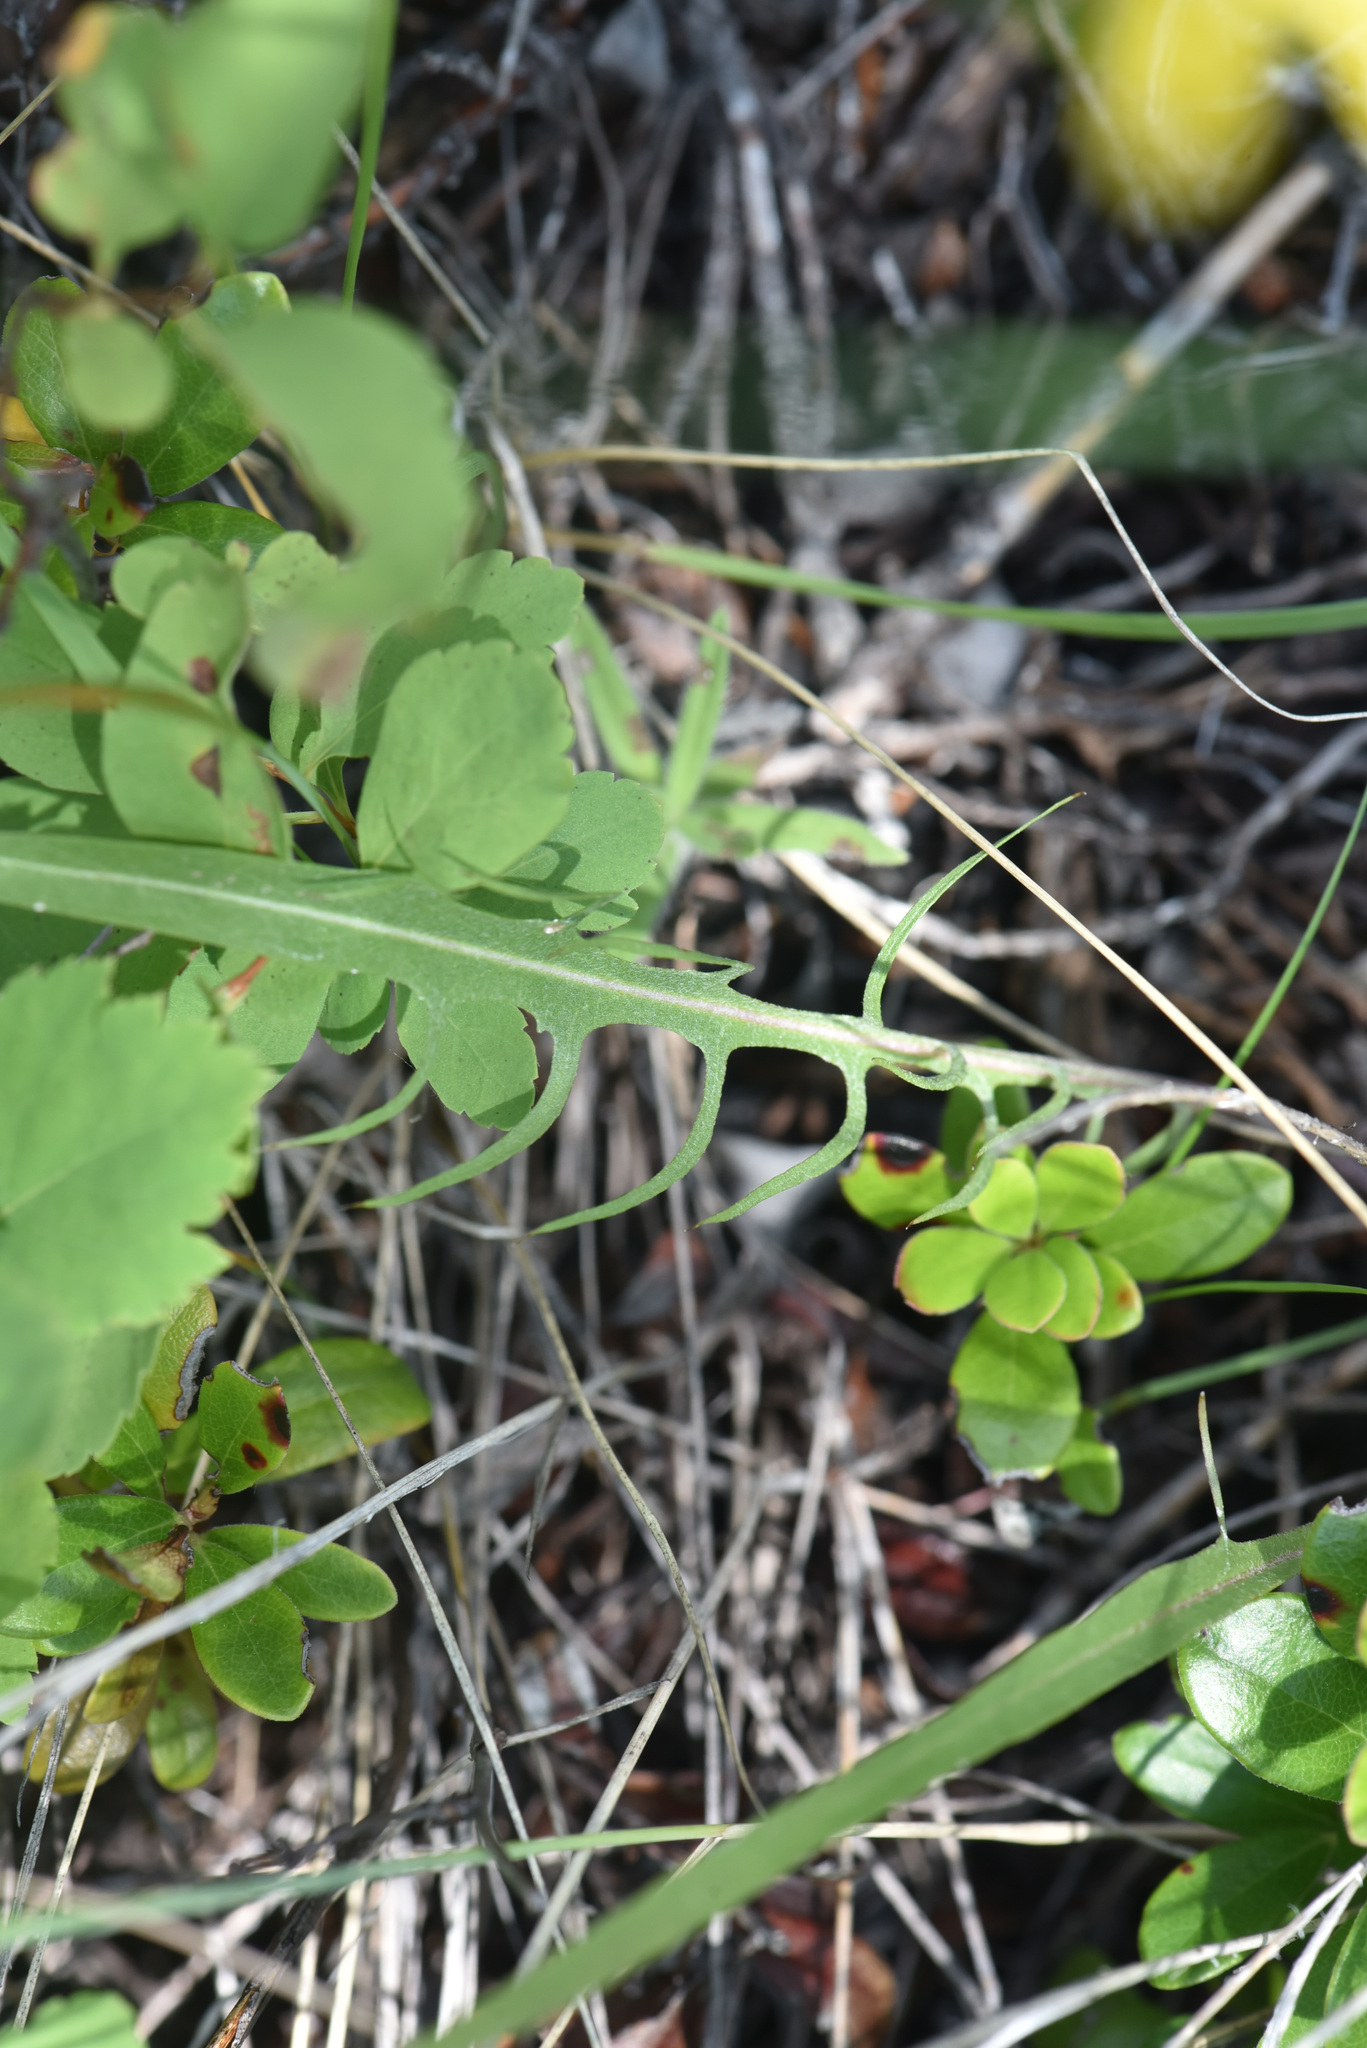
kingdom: Plantae
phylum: Tracheophyta
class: Magnoliopsida
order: Asterales
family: Asteraceae
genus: Crepis
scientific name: Crepis atribarba
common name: Dark hawk's-beard
